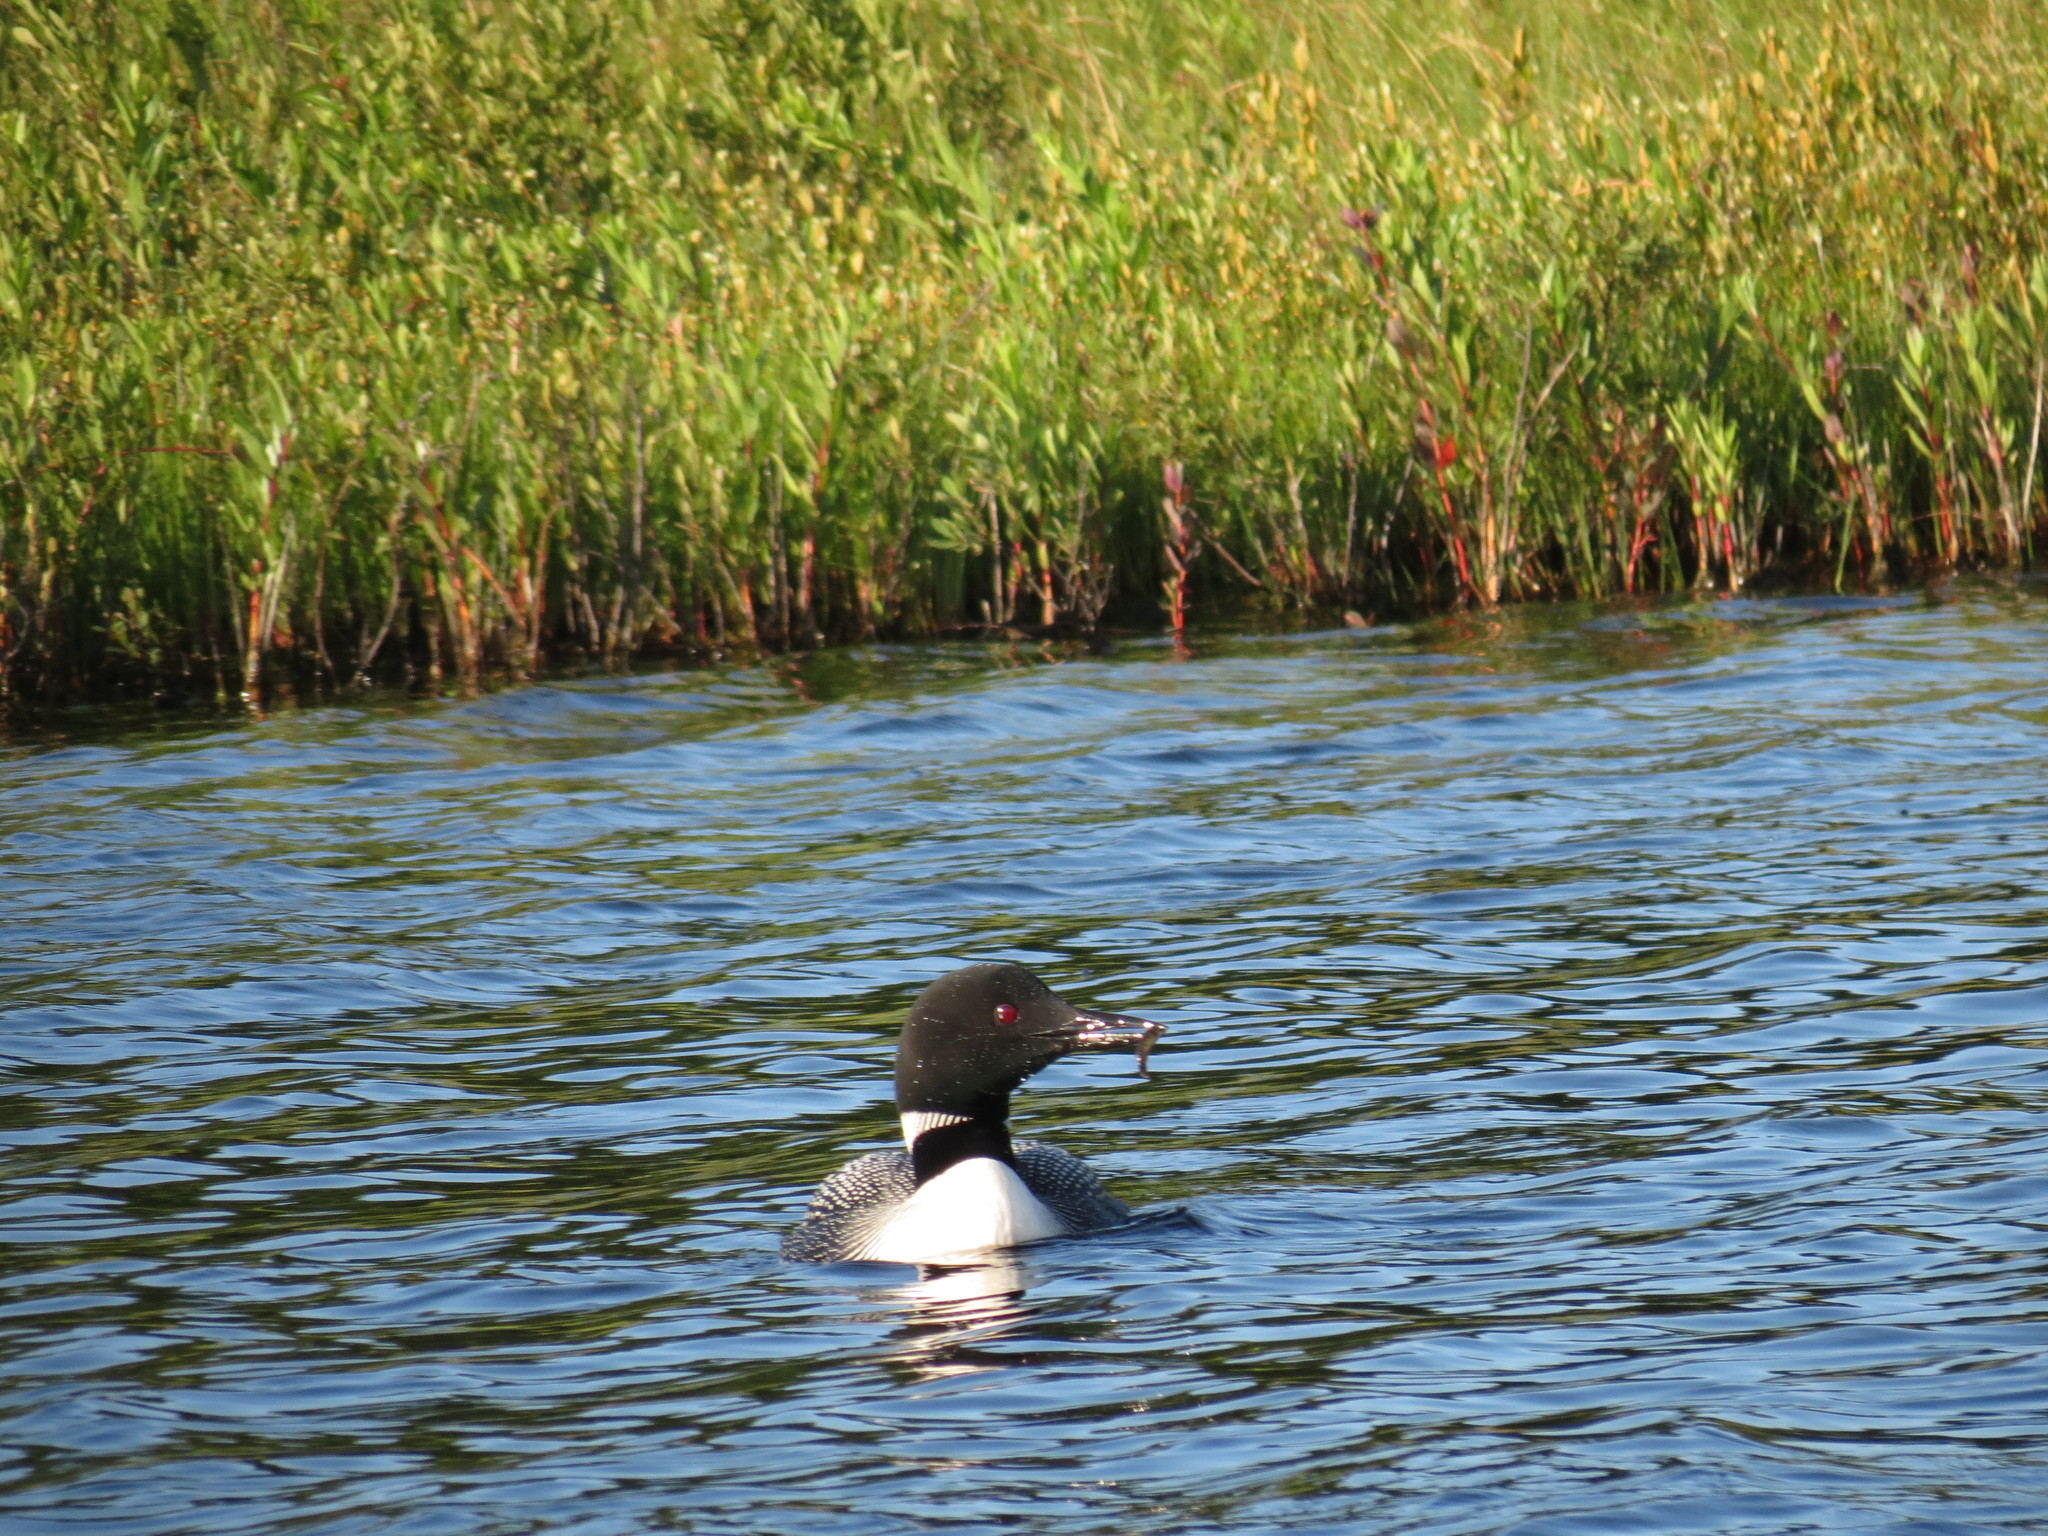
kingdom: Animalia
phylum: Chordata
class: Aves
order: Gaviiformes
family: Gaviidae
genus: Gavia
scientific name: Gavia immer
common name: Common loon
